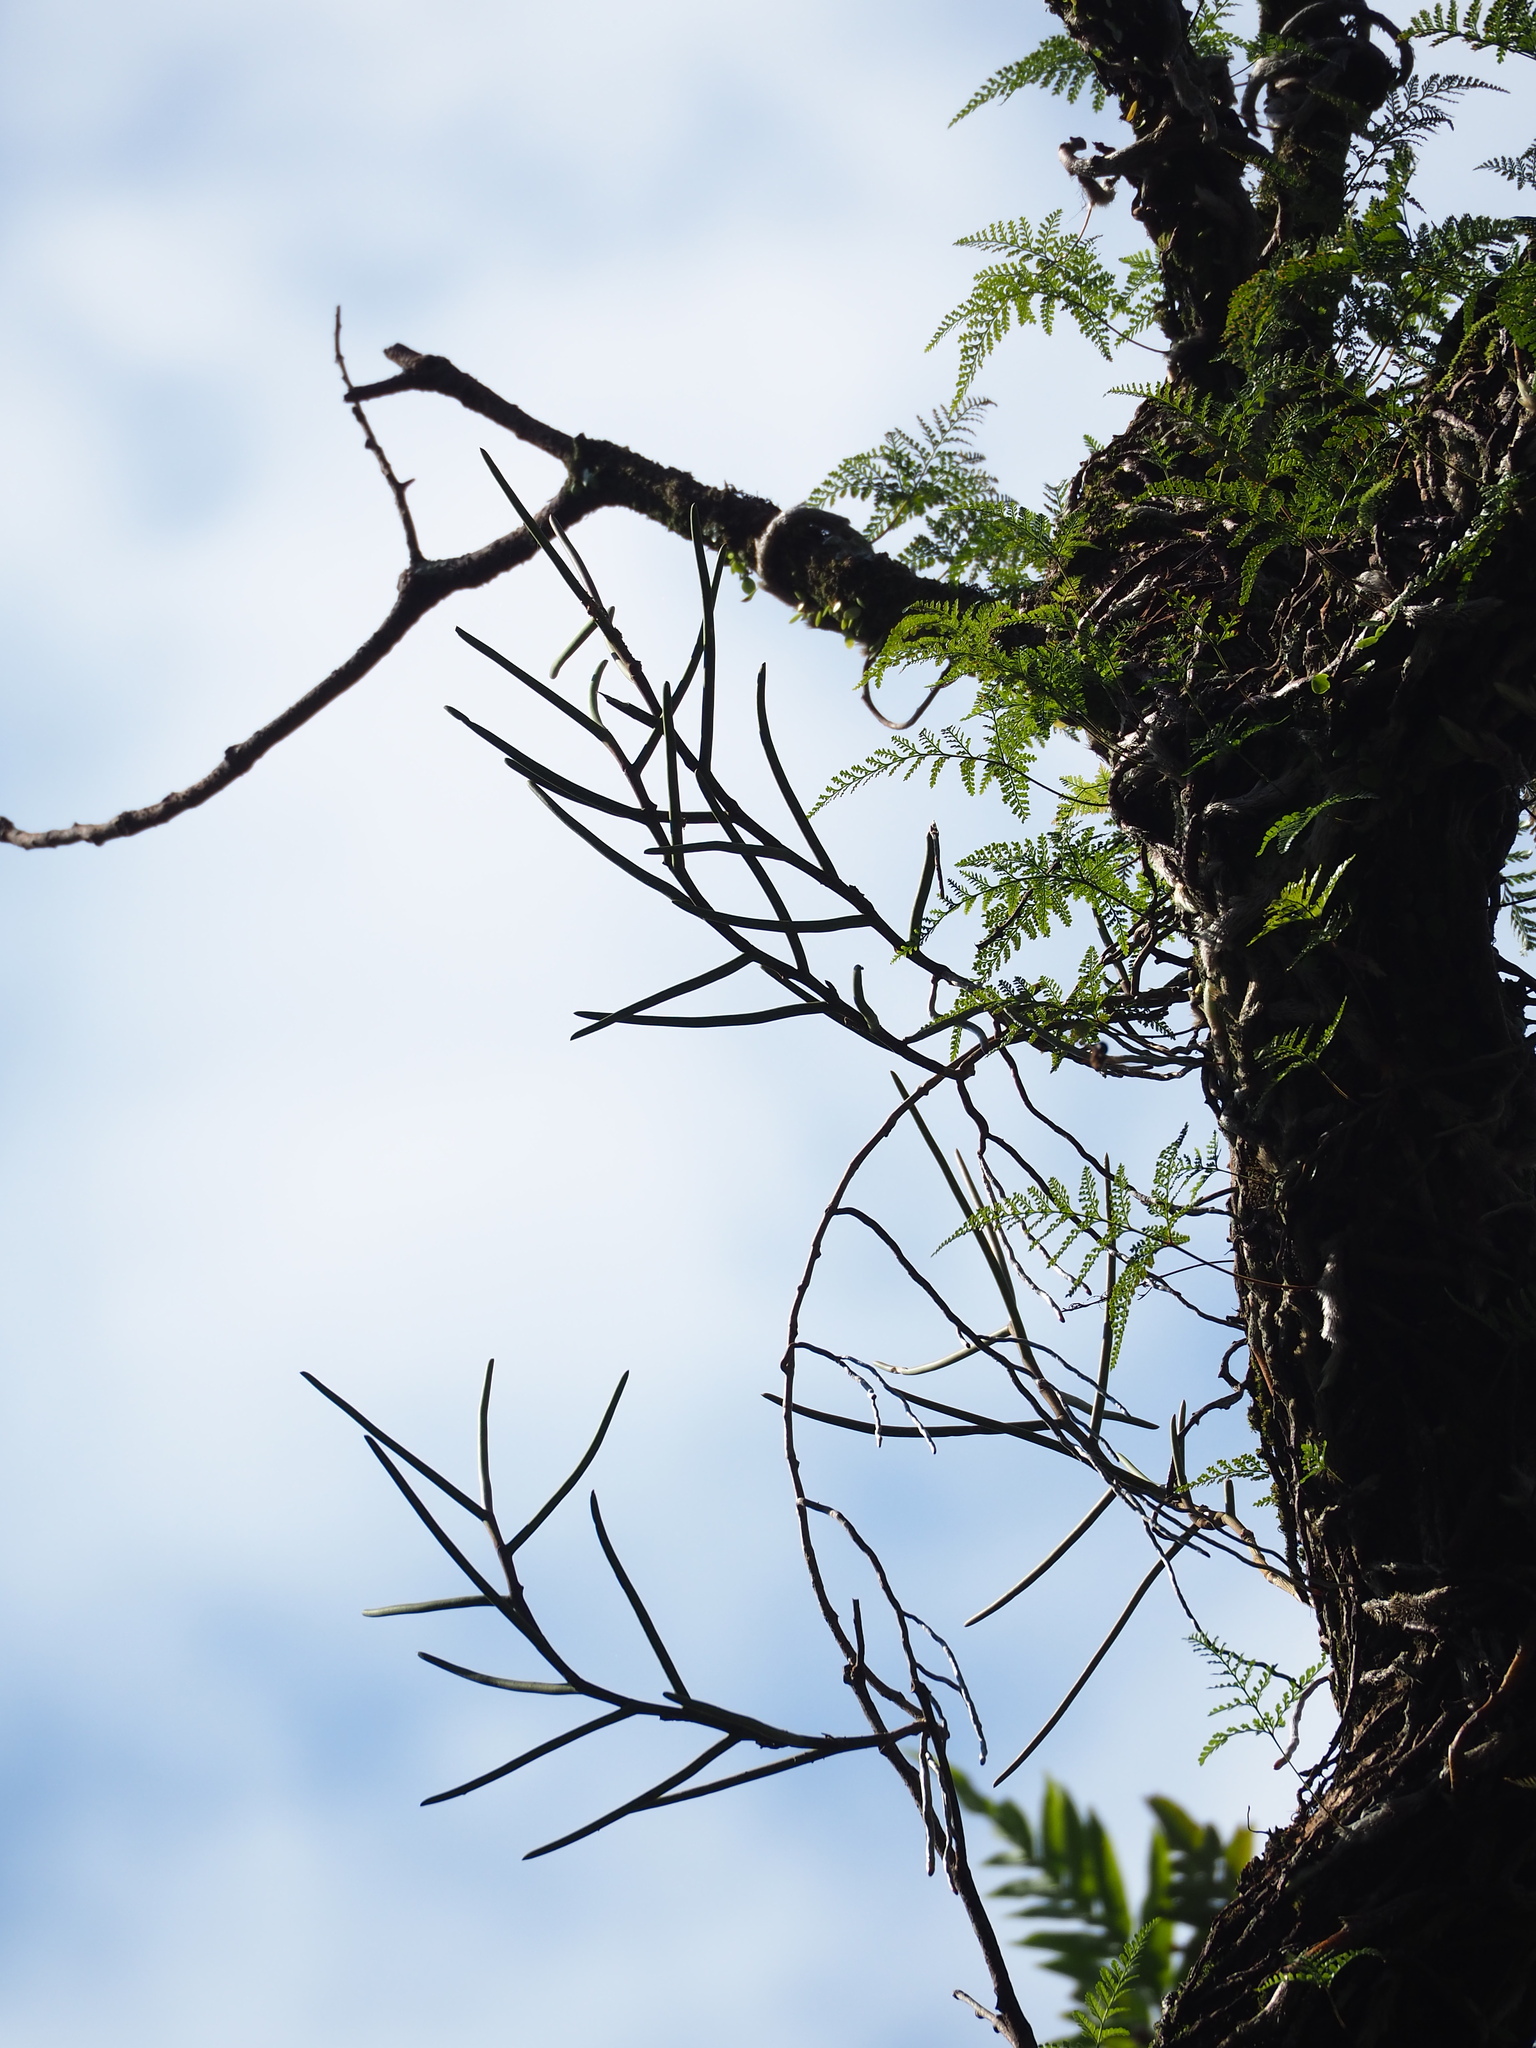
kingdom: Plantae
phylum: Tracheophyta
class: Liliopsida
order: Asparagales
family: Orchidaceae
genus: Luisia
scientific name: Luisia tristis
